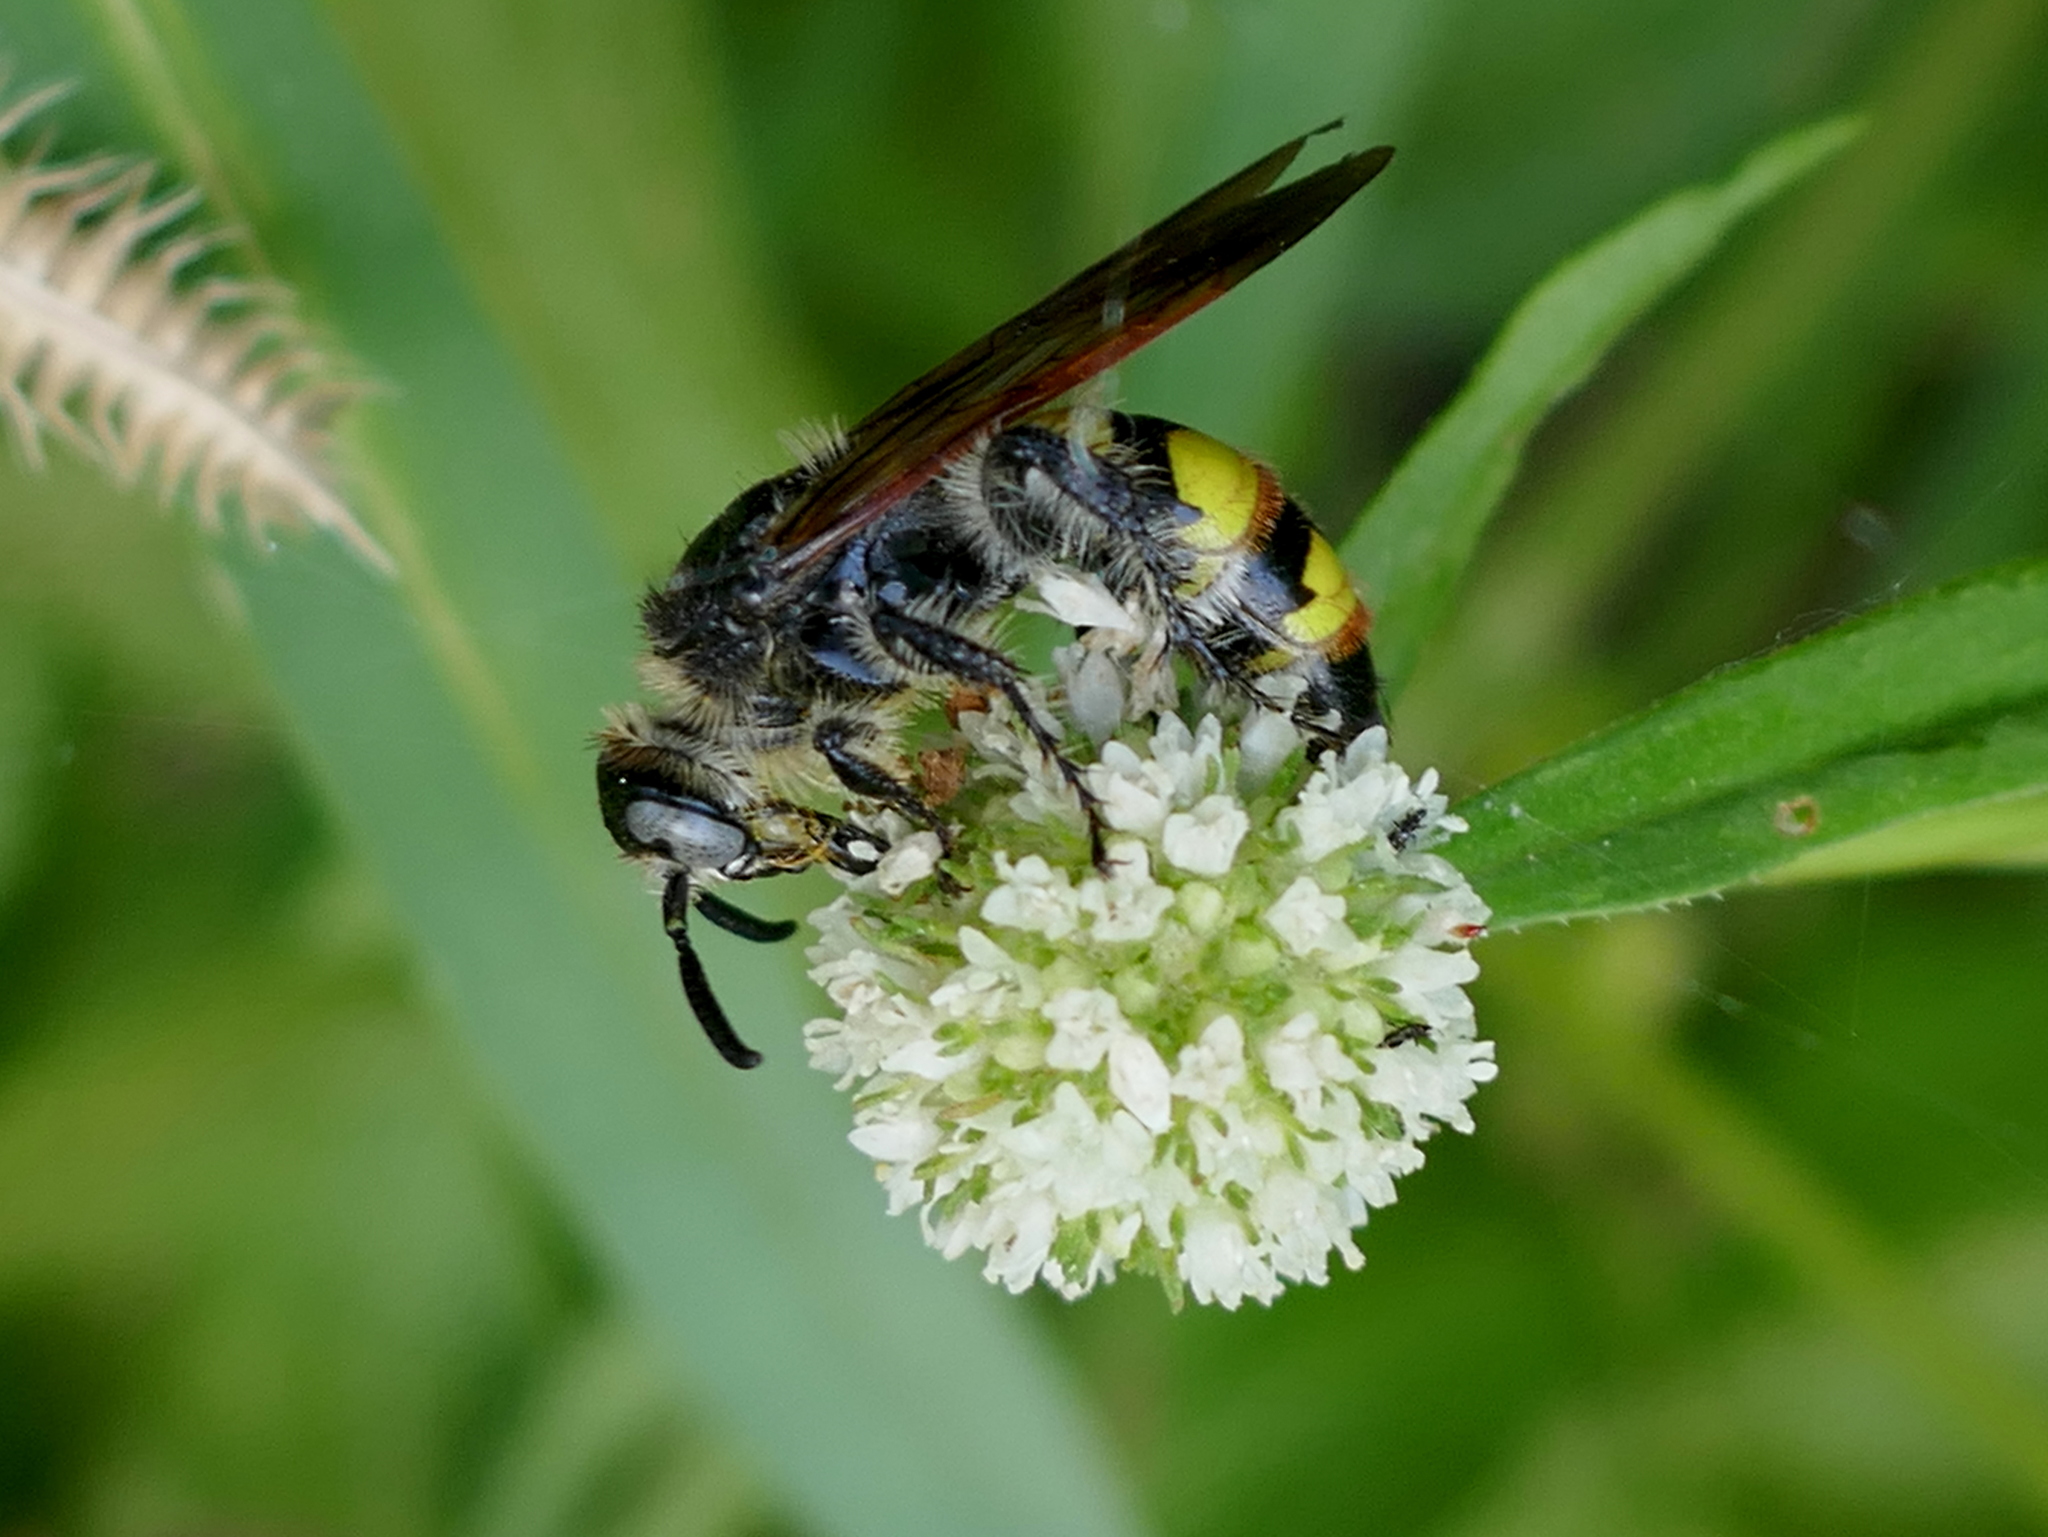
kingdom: Animalia
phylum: Arthropoda
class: Insecta
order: Hymenoptera
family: Scoliidae
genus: Dielis
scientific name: Dielis
